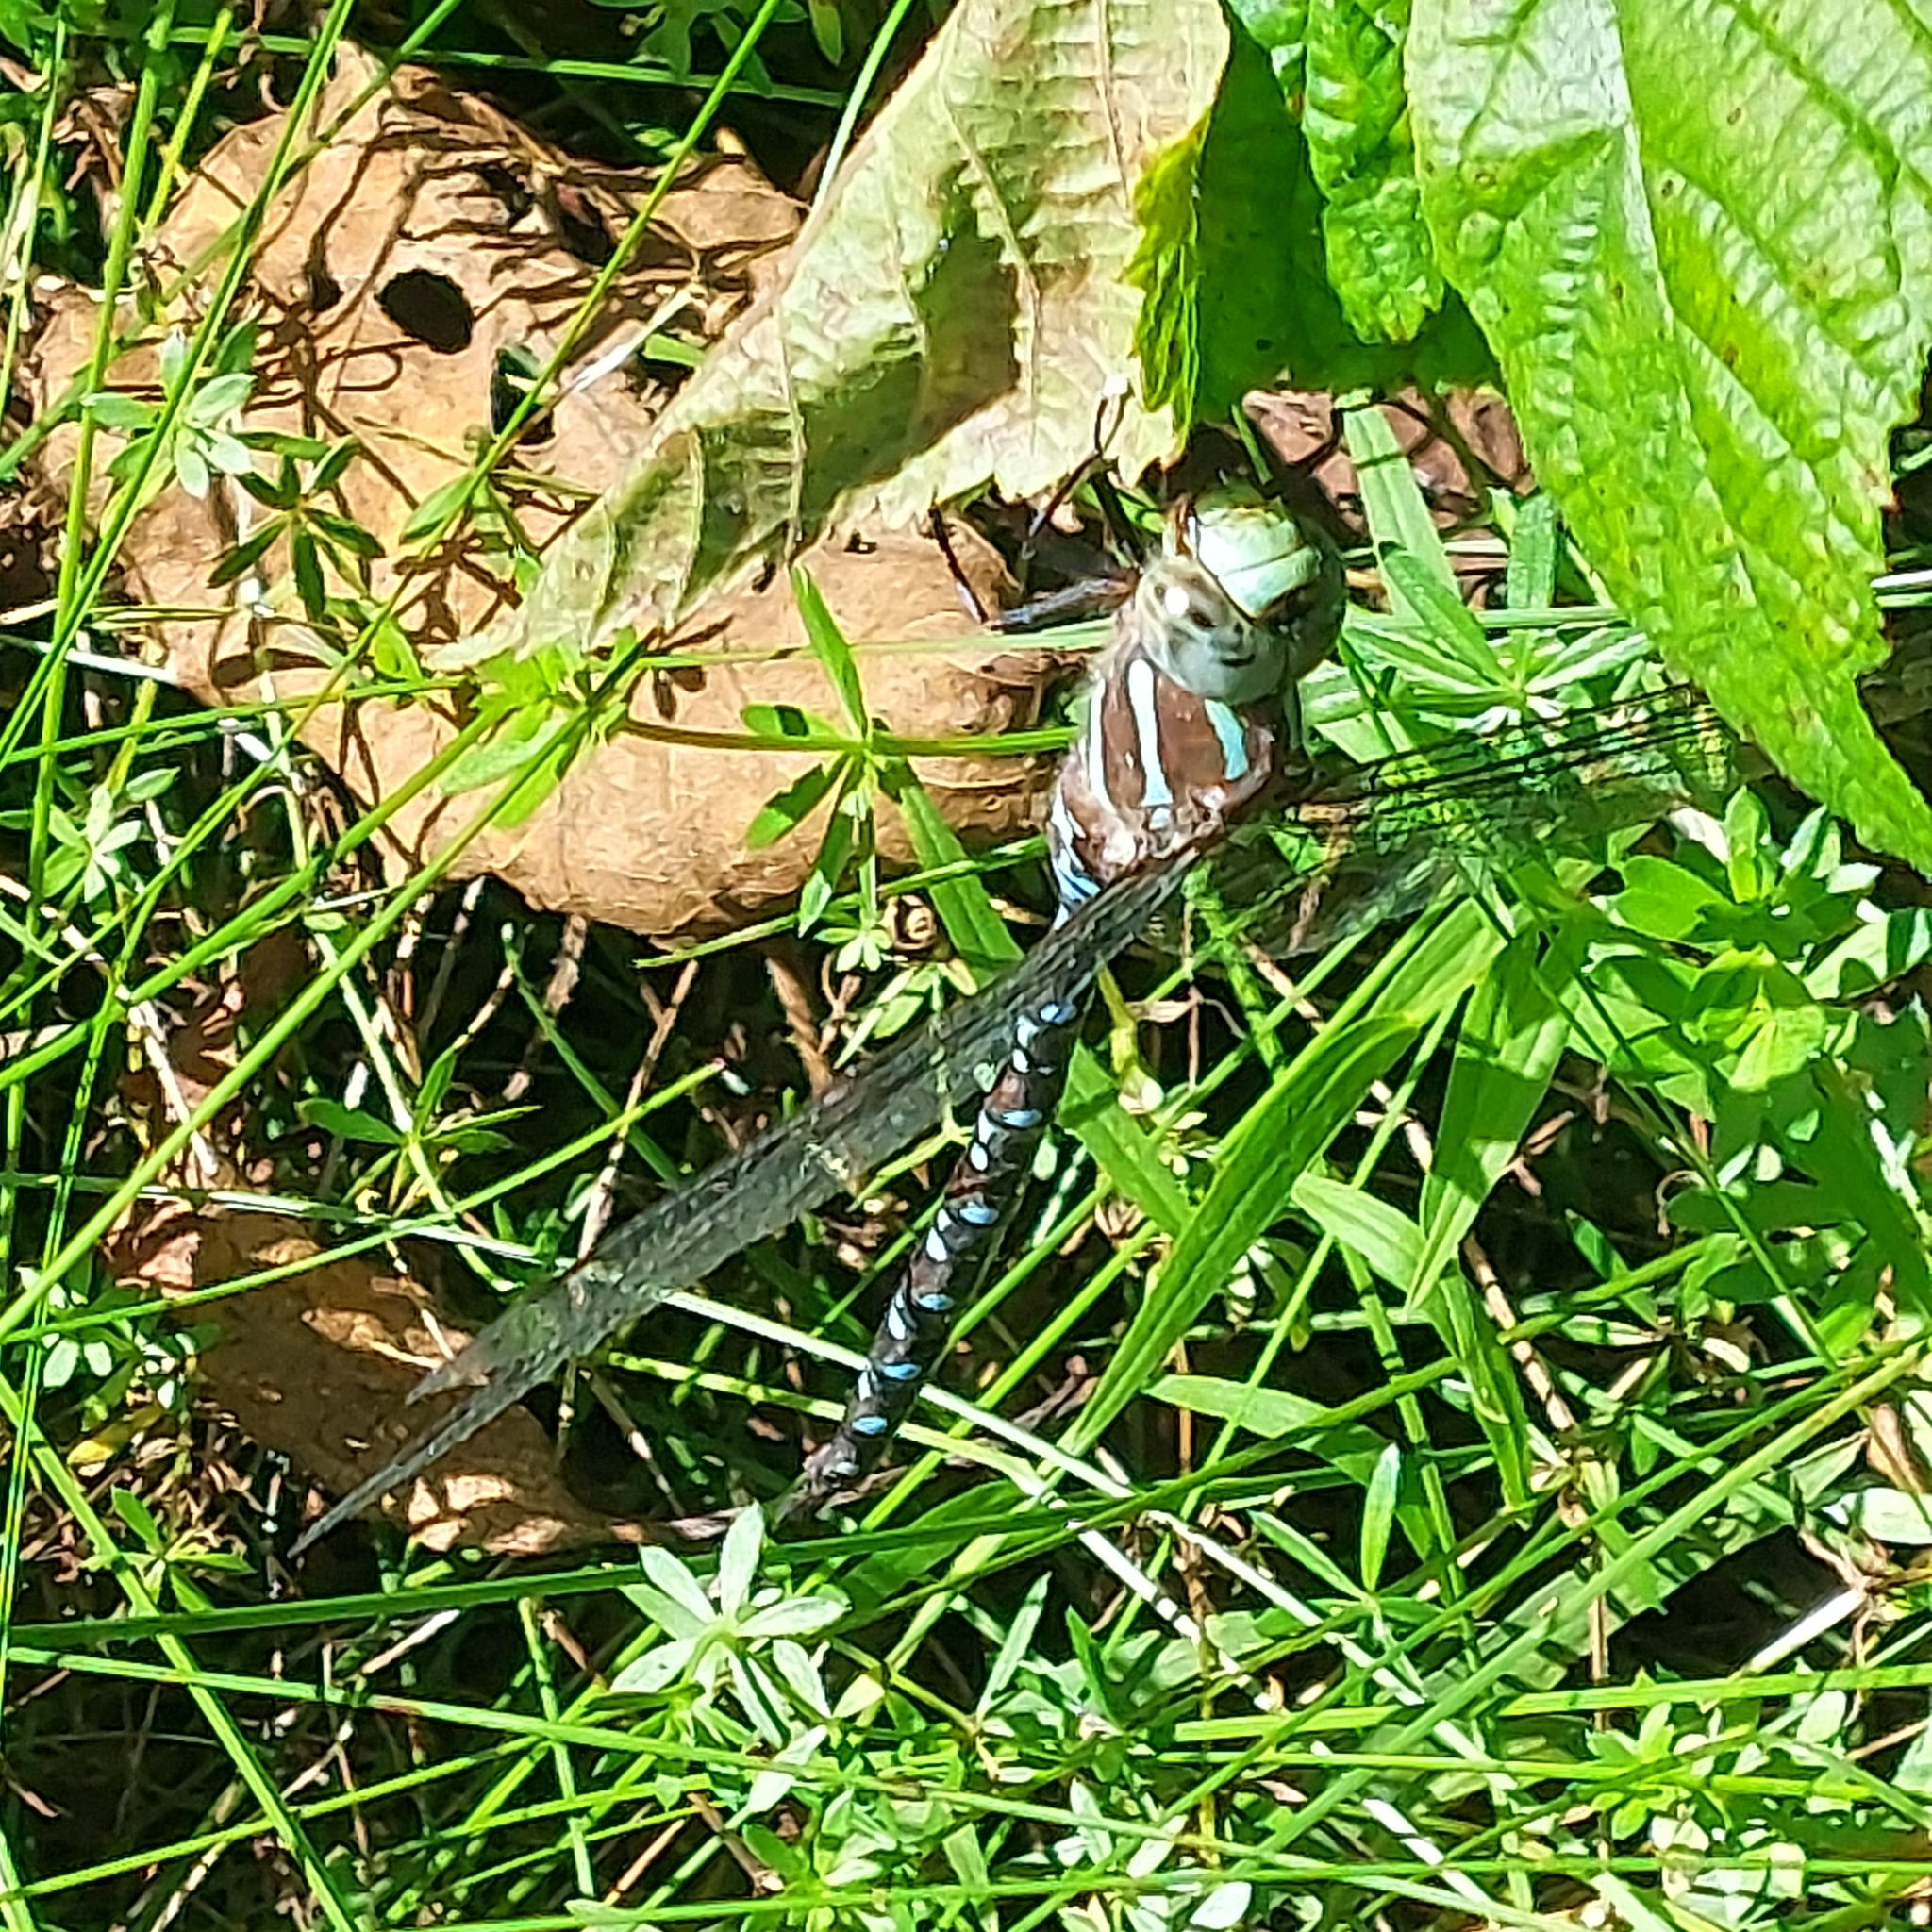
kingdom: Animalia
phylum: Arthropoda
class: Insecta
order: Odonata
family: Aeshnidae
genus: Aeshna
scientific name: Aeshna tuberculifera
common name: Aeschne à tubercules
